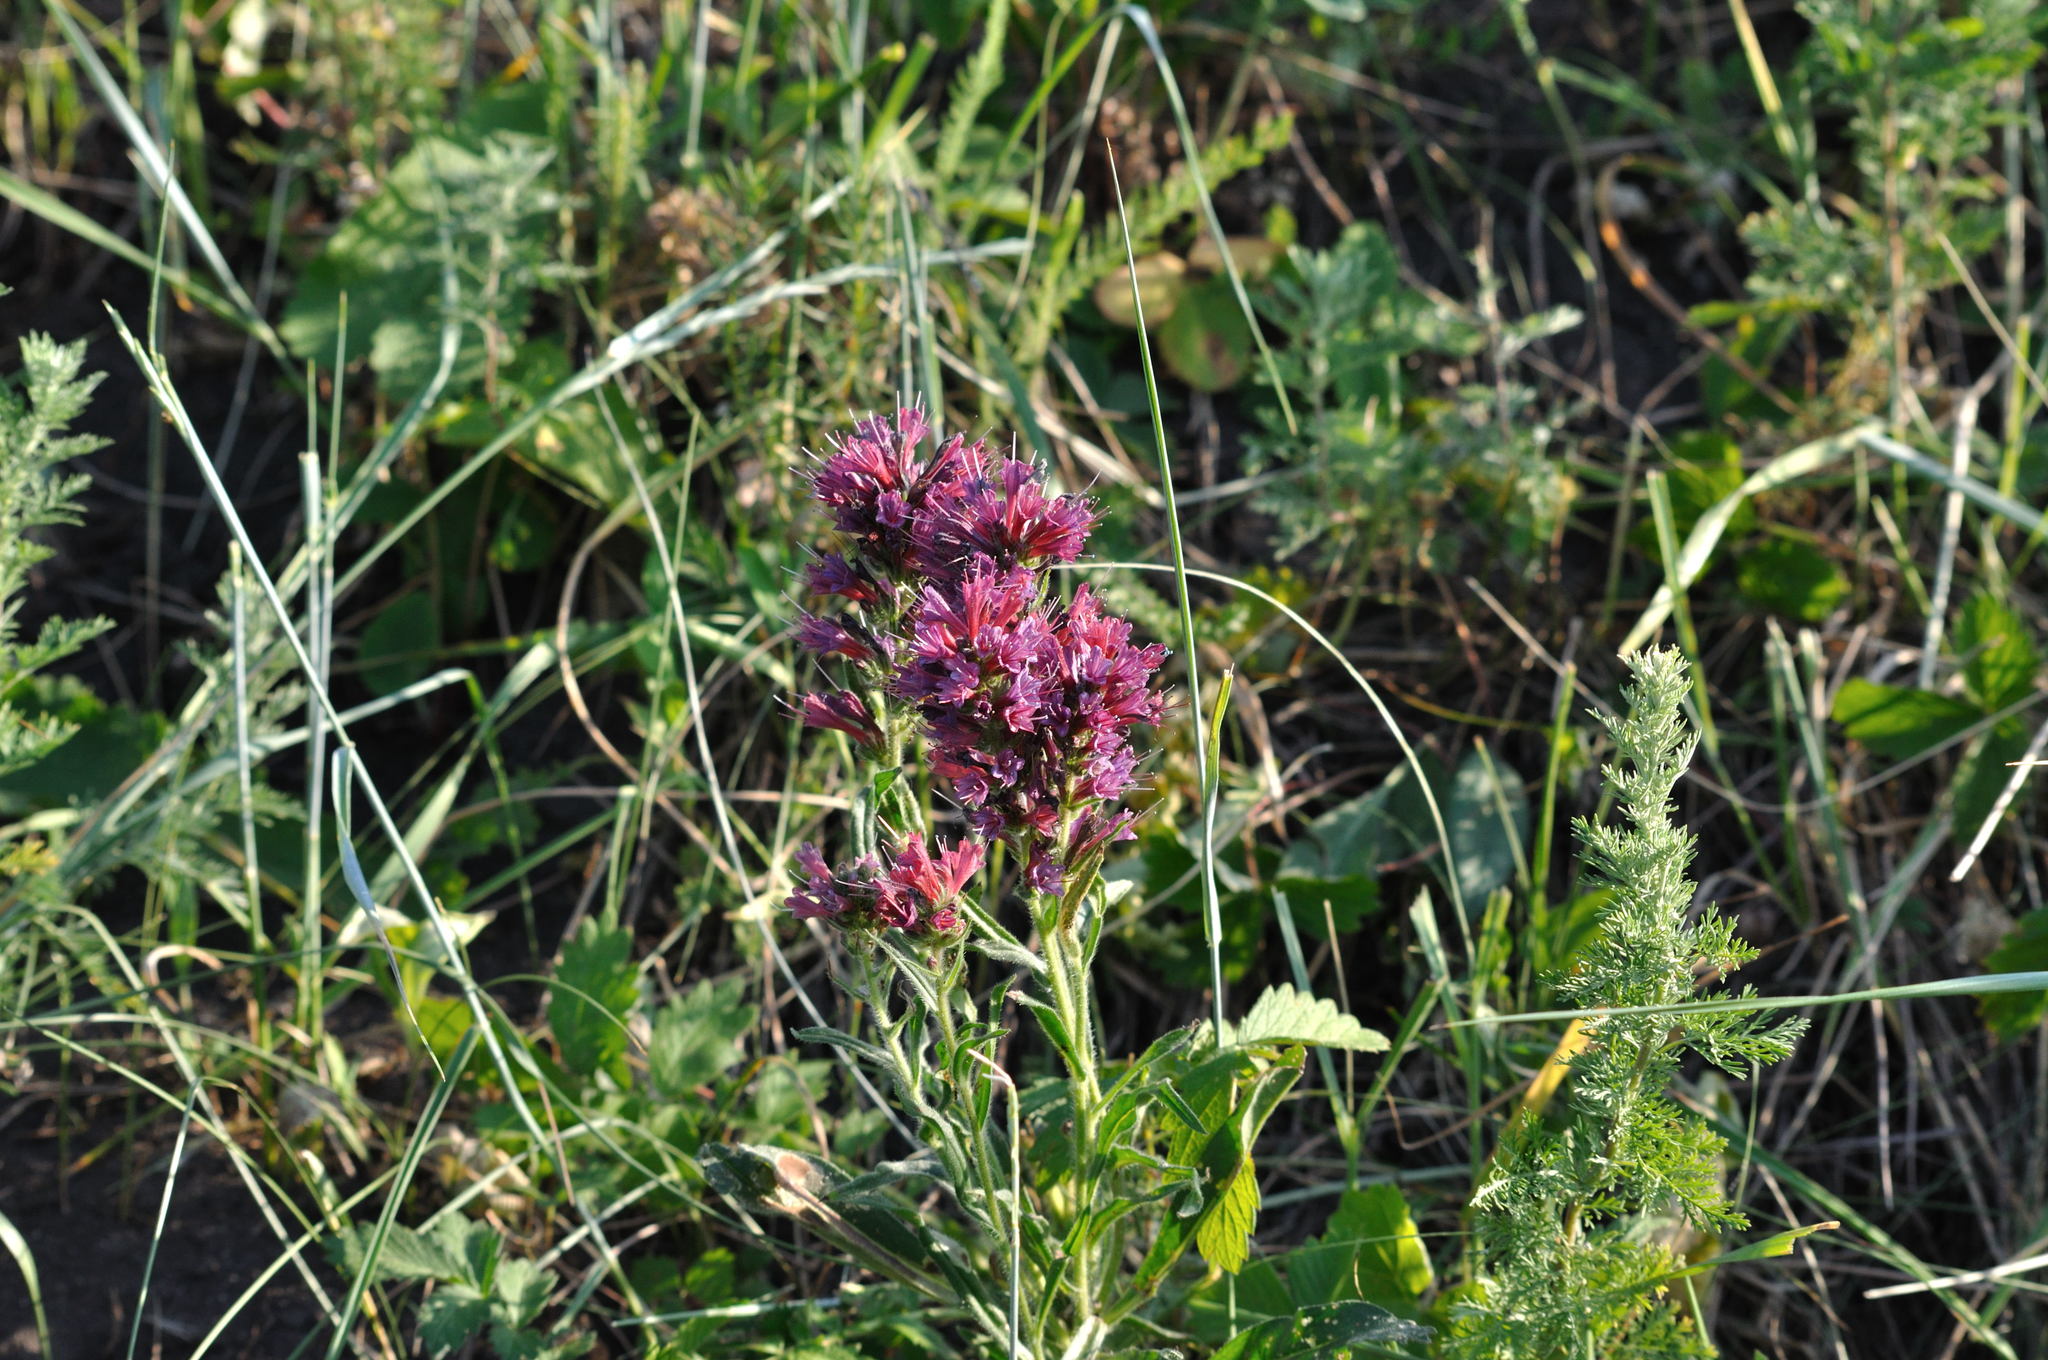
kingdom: Plantae
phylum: Tracheophyta
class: Magnoliopsida
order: Boraginales
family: Boraginaceae
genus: Pontechium
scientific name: Pontechium maculatum
